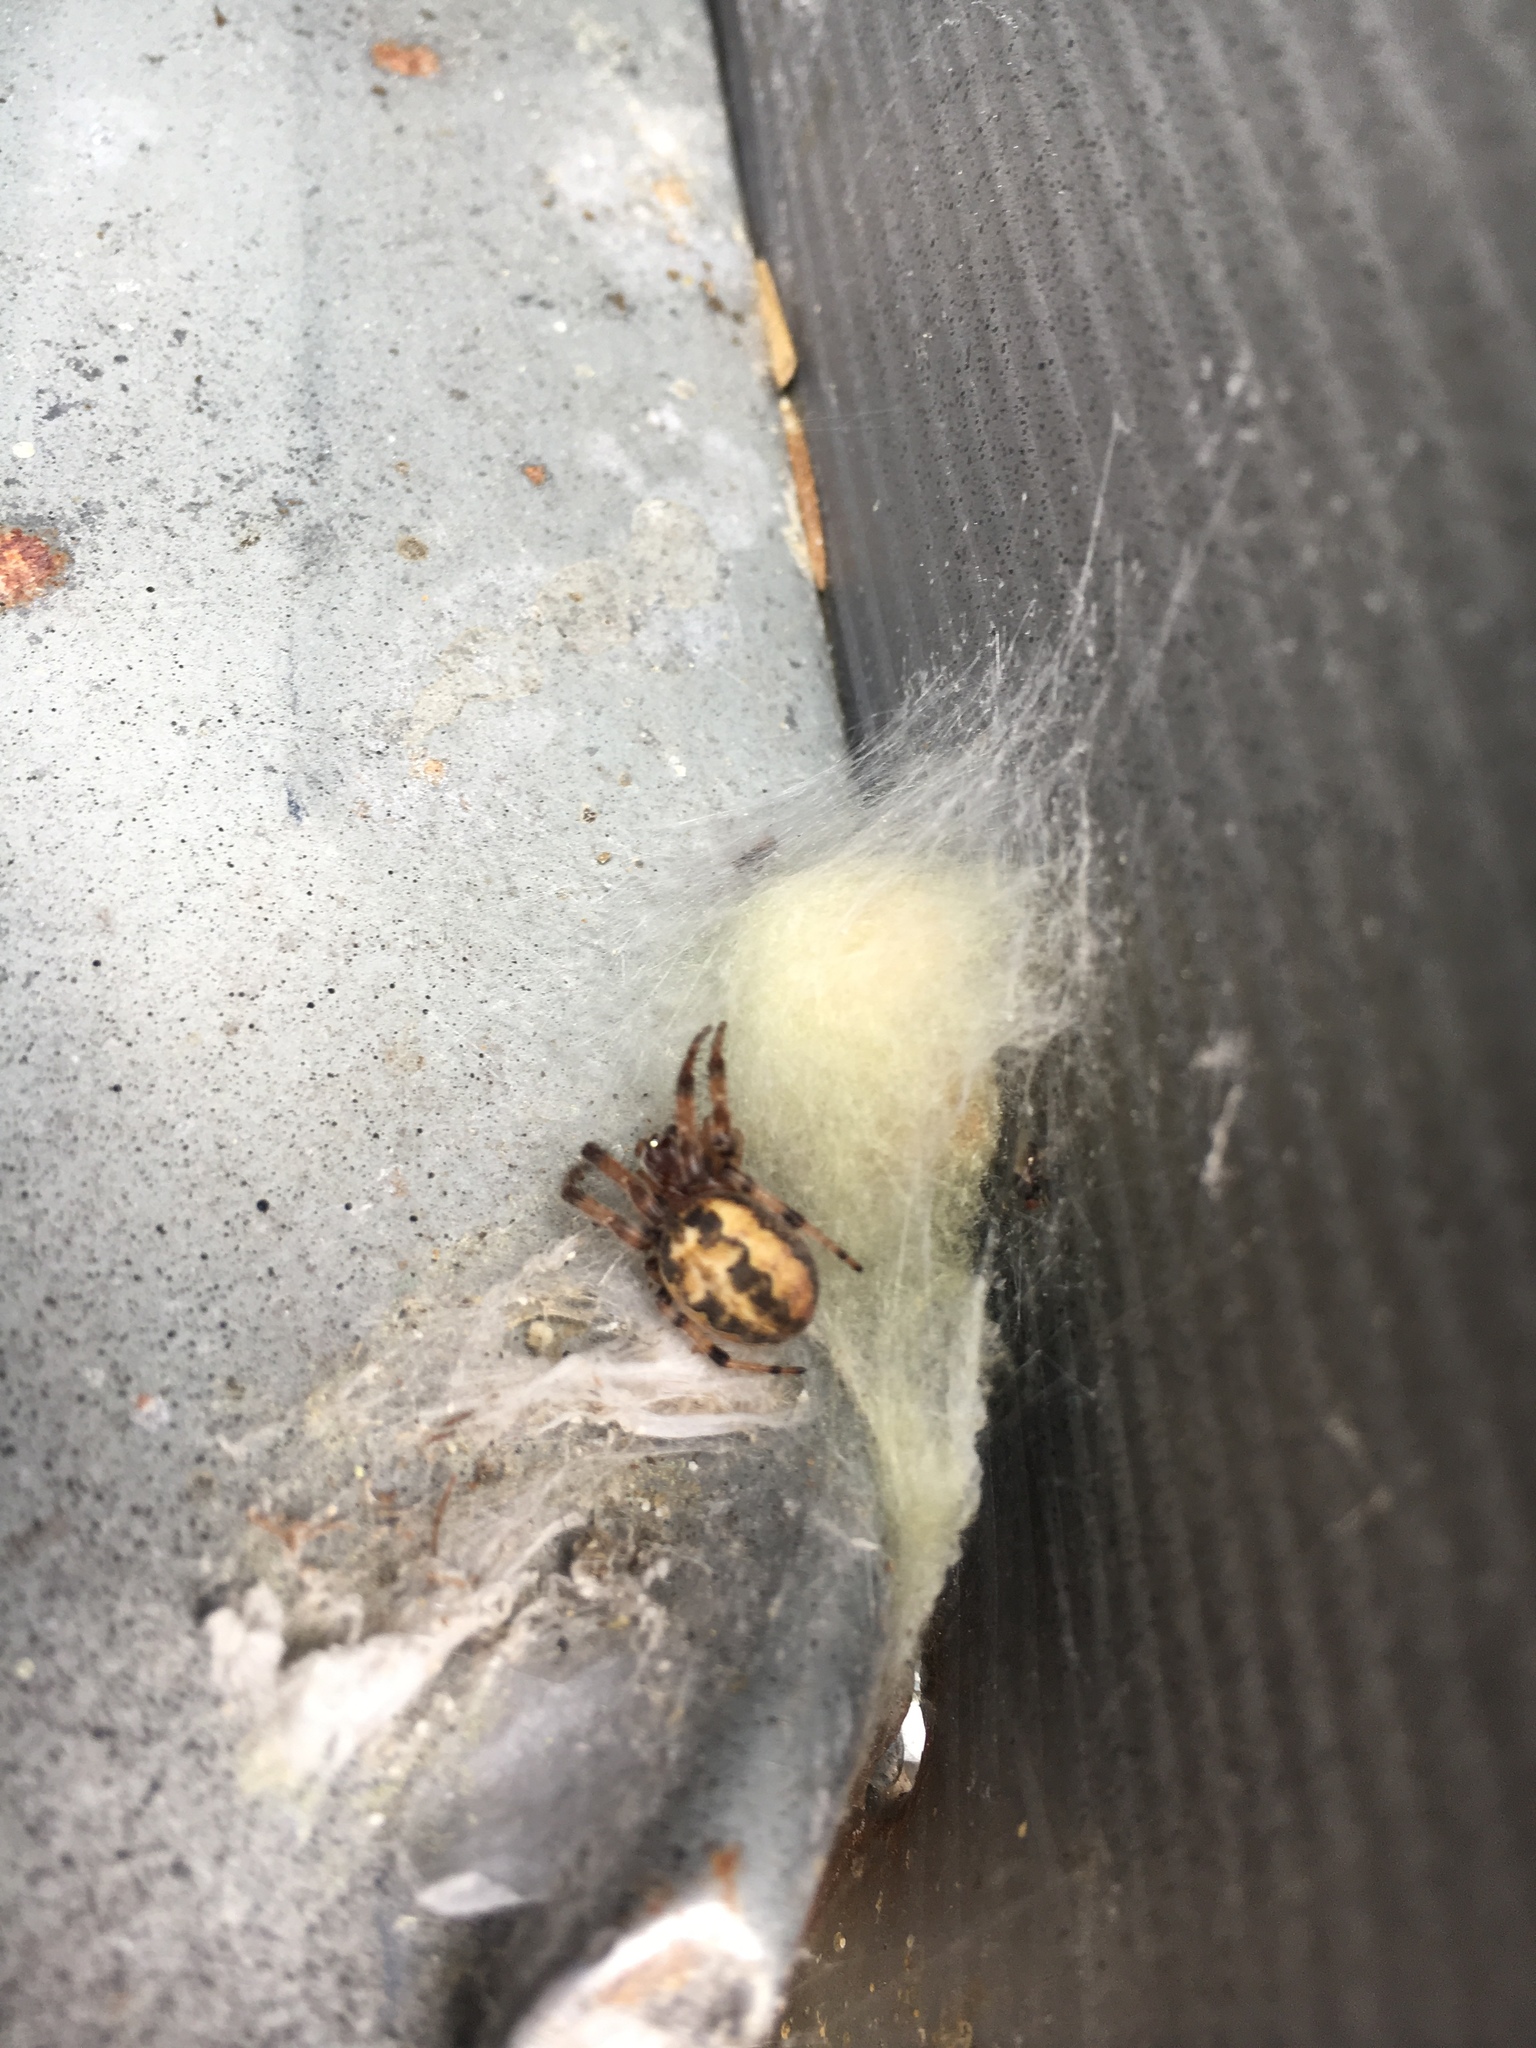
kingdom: Animalia
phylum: Arthropoda
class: Arachnida
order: Araneae
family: Araneidae
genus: Larinioides
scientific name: Larinioides cornutus
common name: Furrow orbweaver
